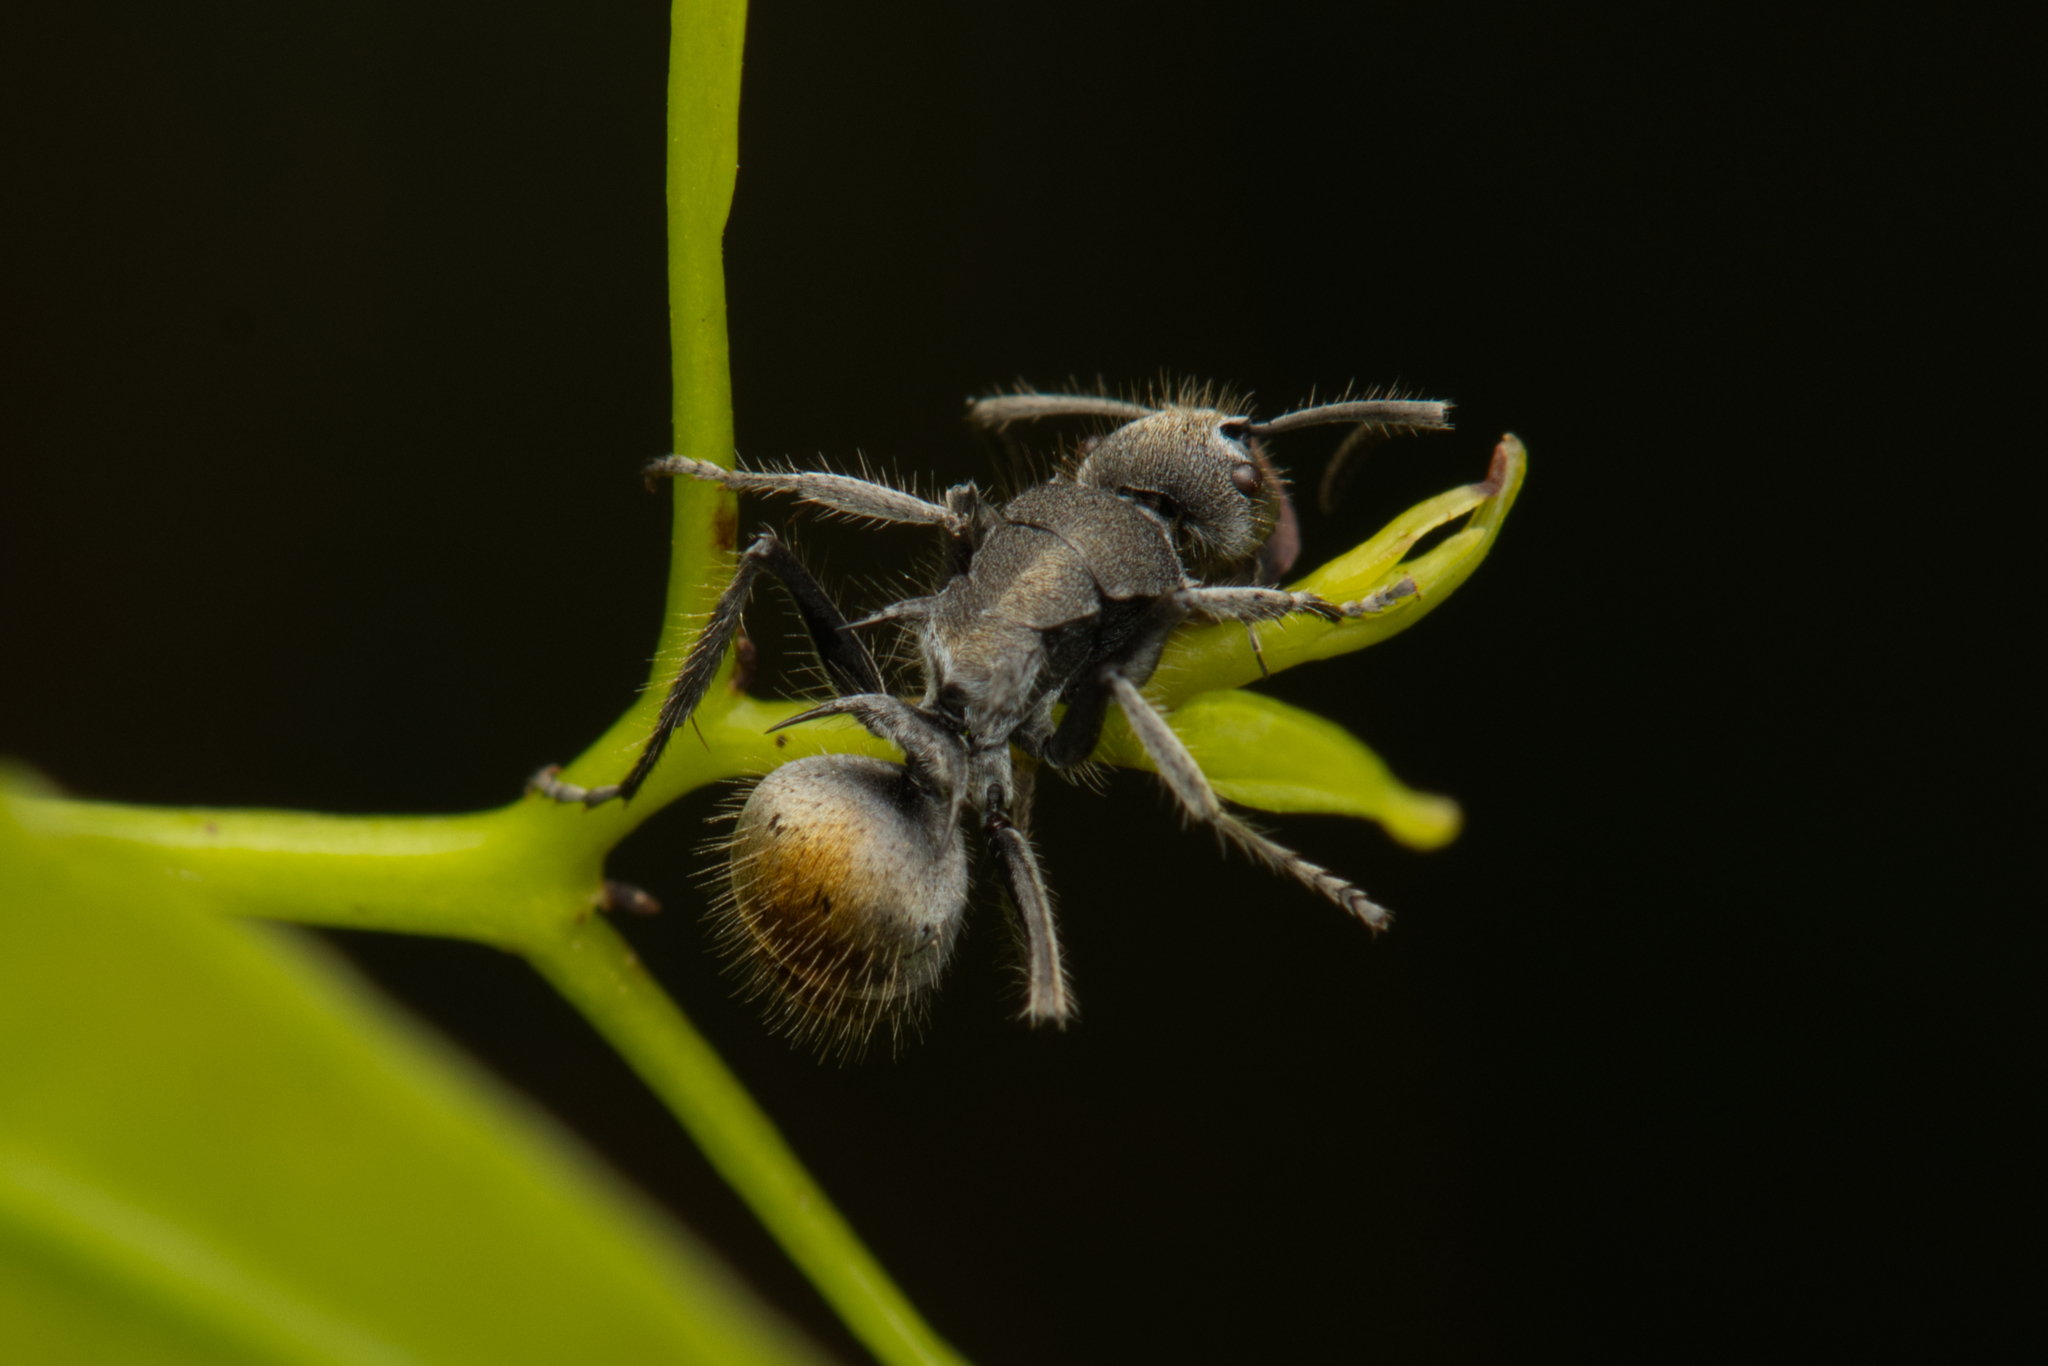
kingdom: Animalia
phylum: Arthropoda
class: Insecta
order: Hymenoptera
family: Formicidae
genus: Polyrhachis
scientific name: Polyrhachis vermiculosa
